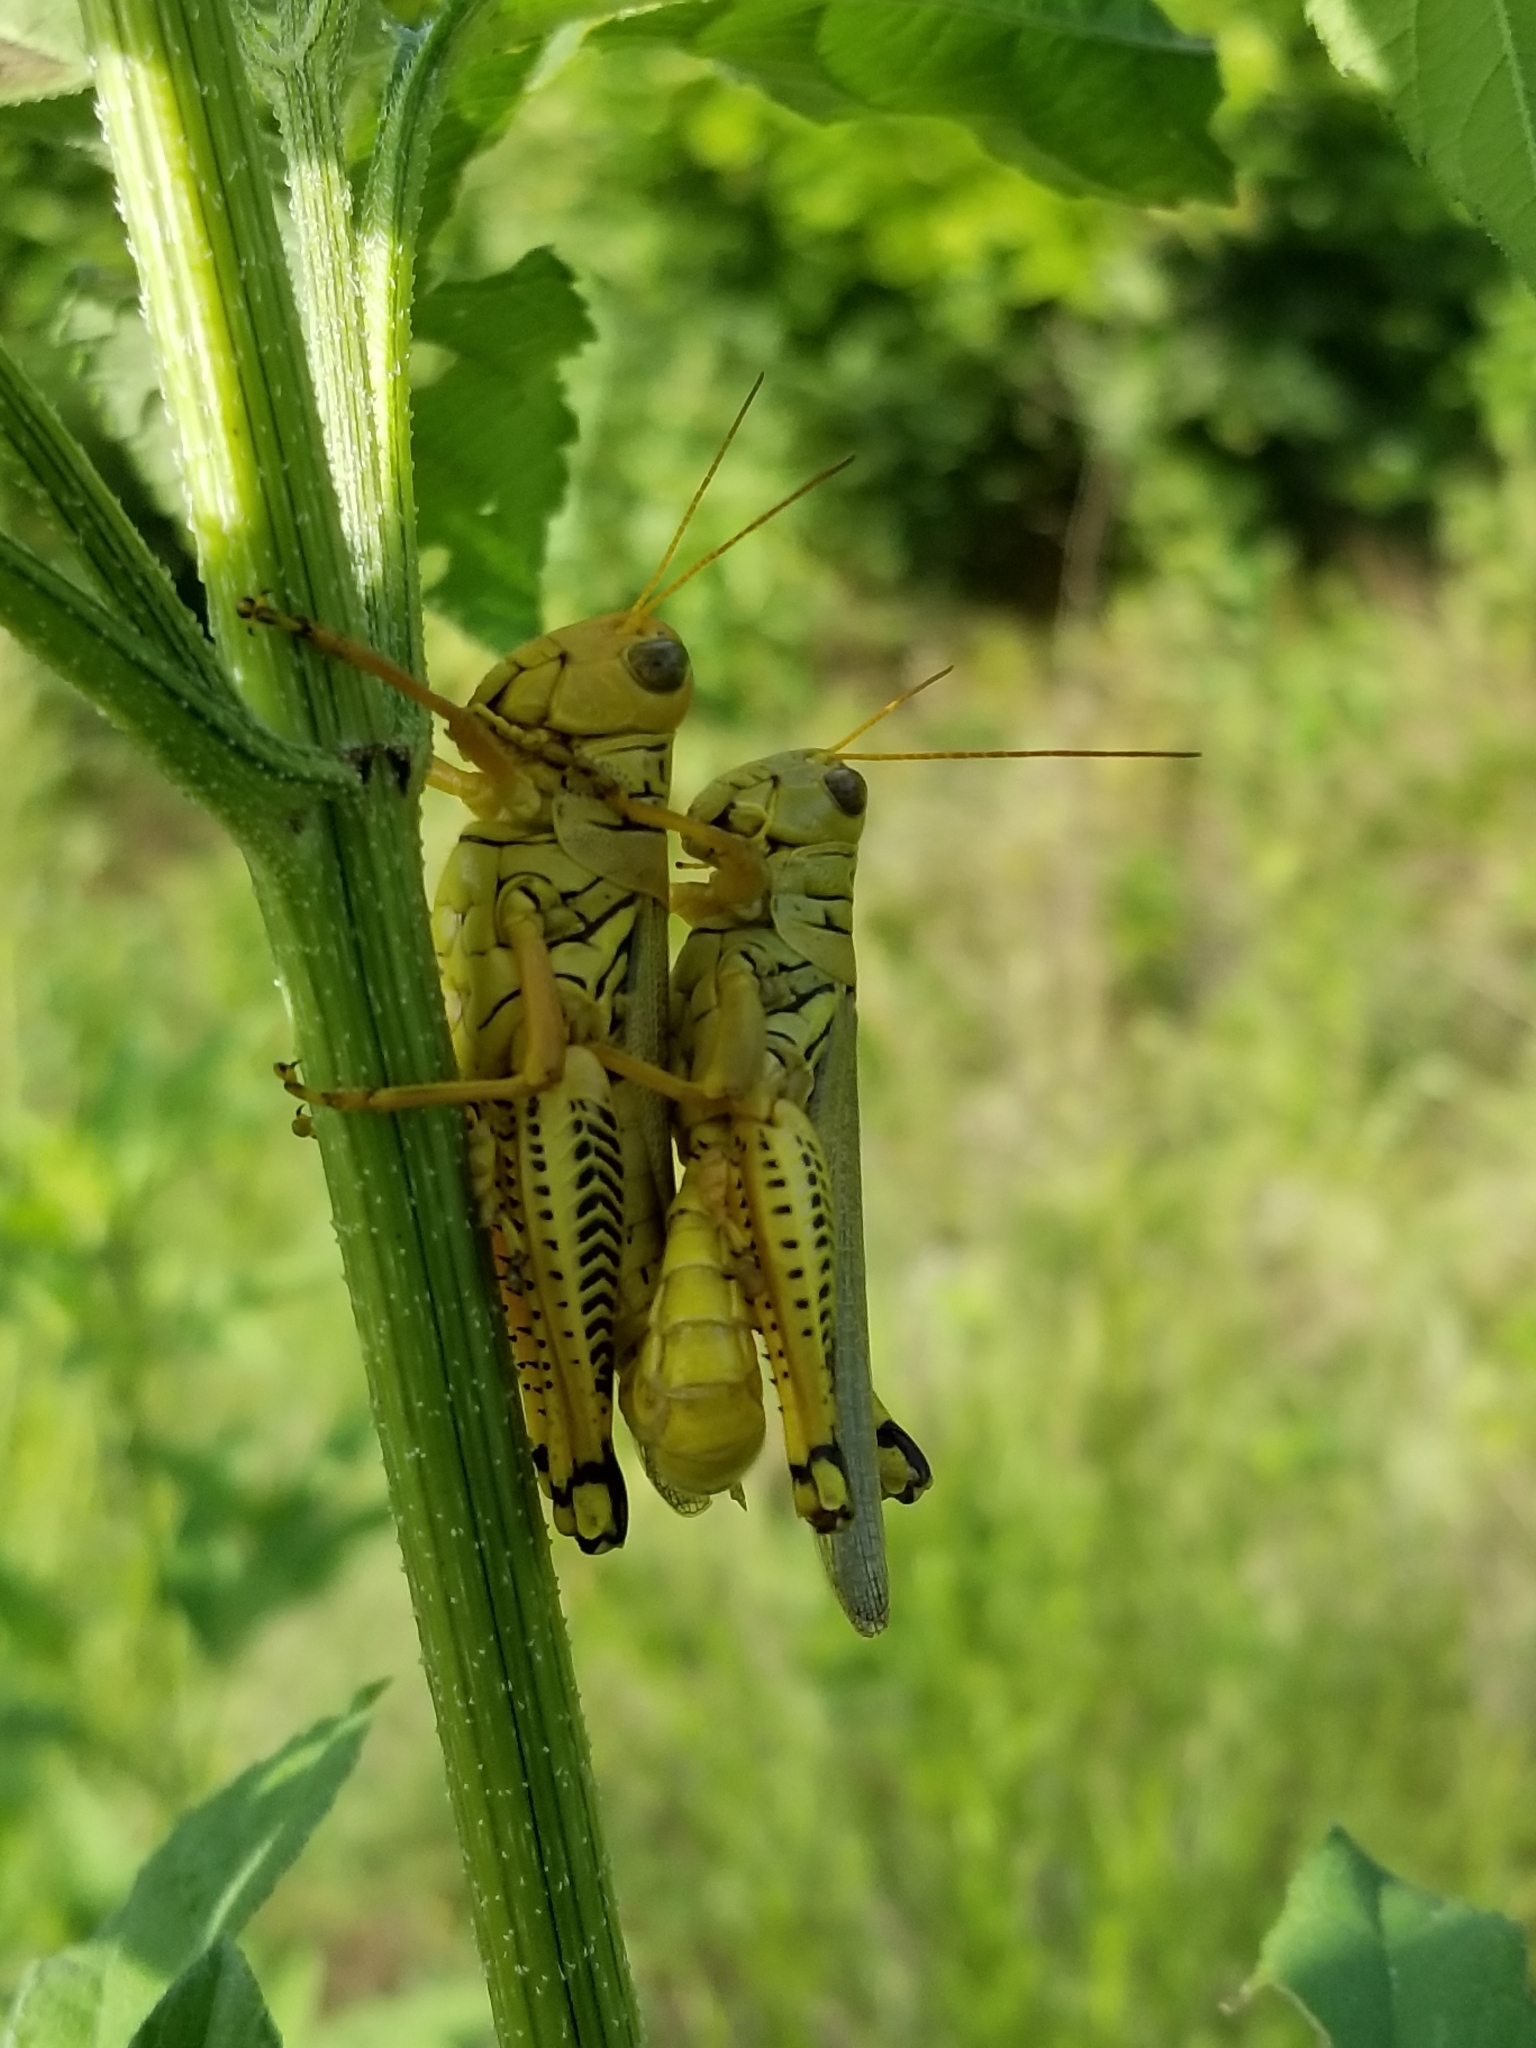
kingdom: Animalia
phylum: Arthropoda
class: Insecta
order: Orthoptera
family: Acrididae
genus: Melanoplus
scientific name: Melanoplus differentialis
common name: Differential grasshopper
